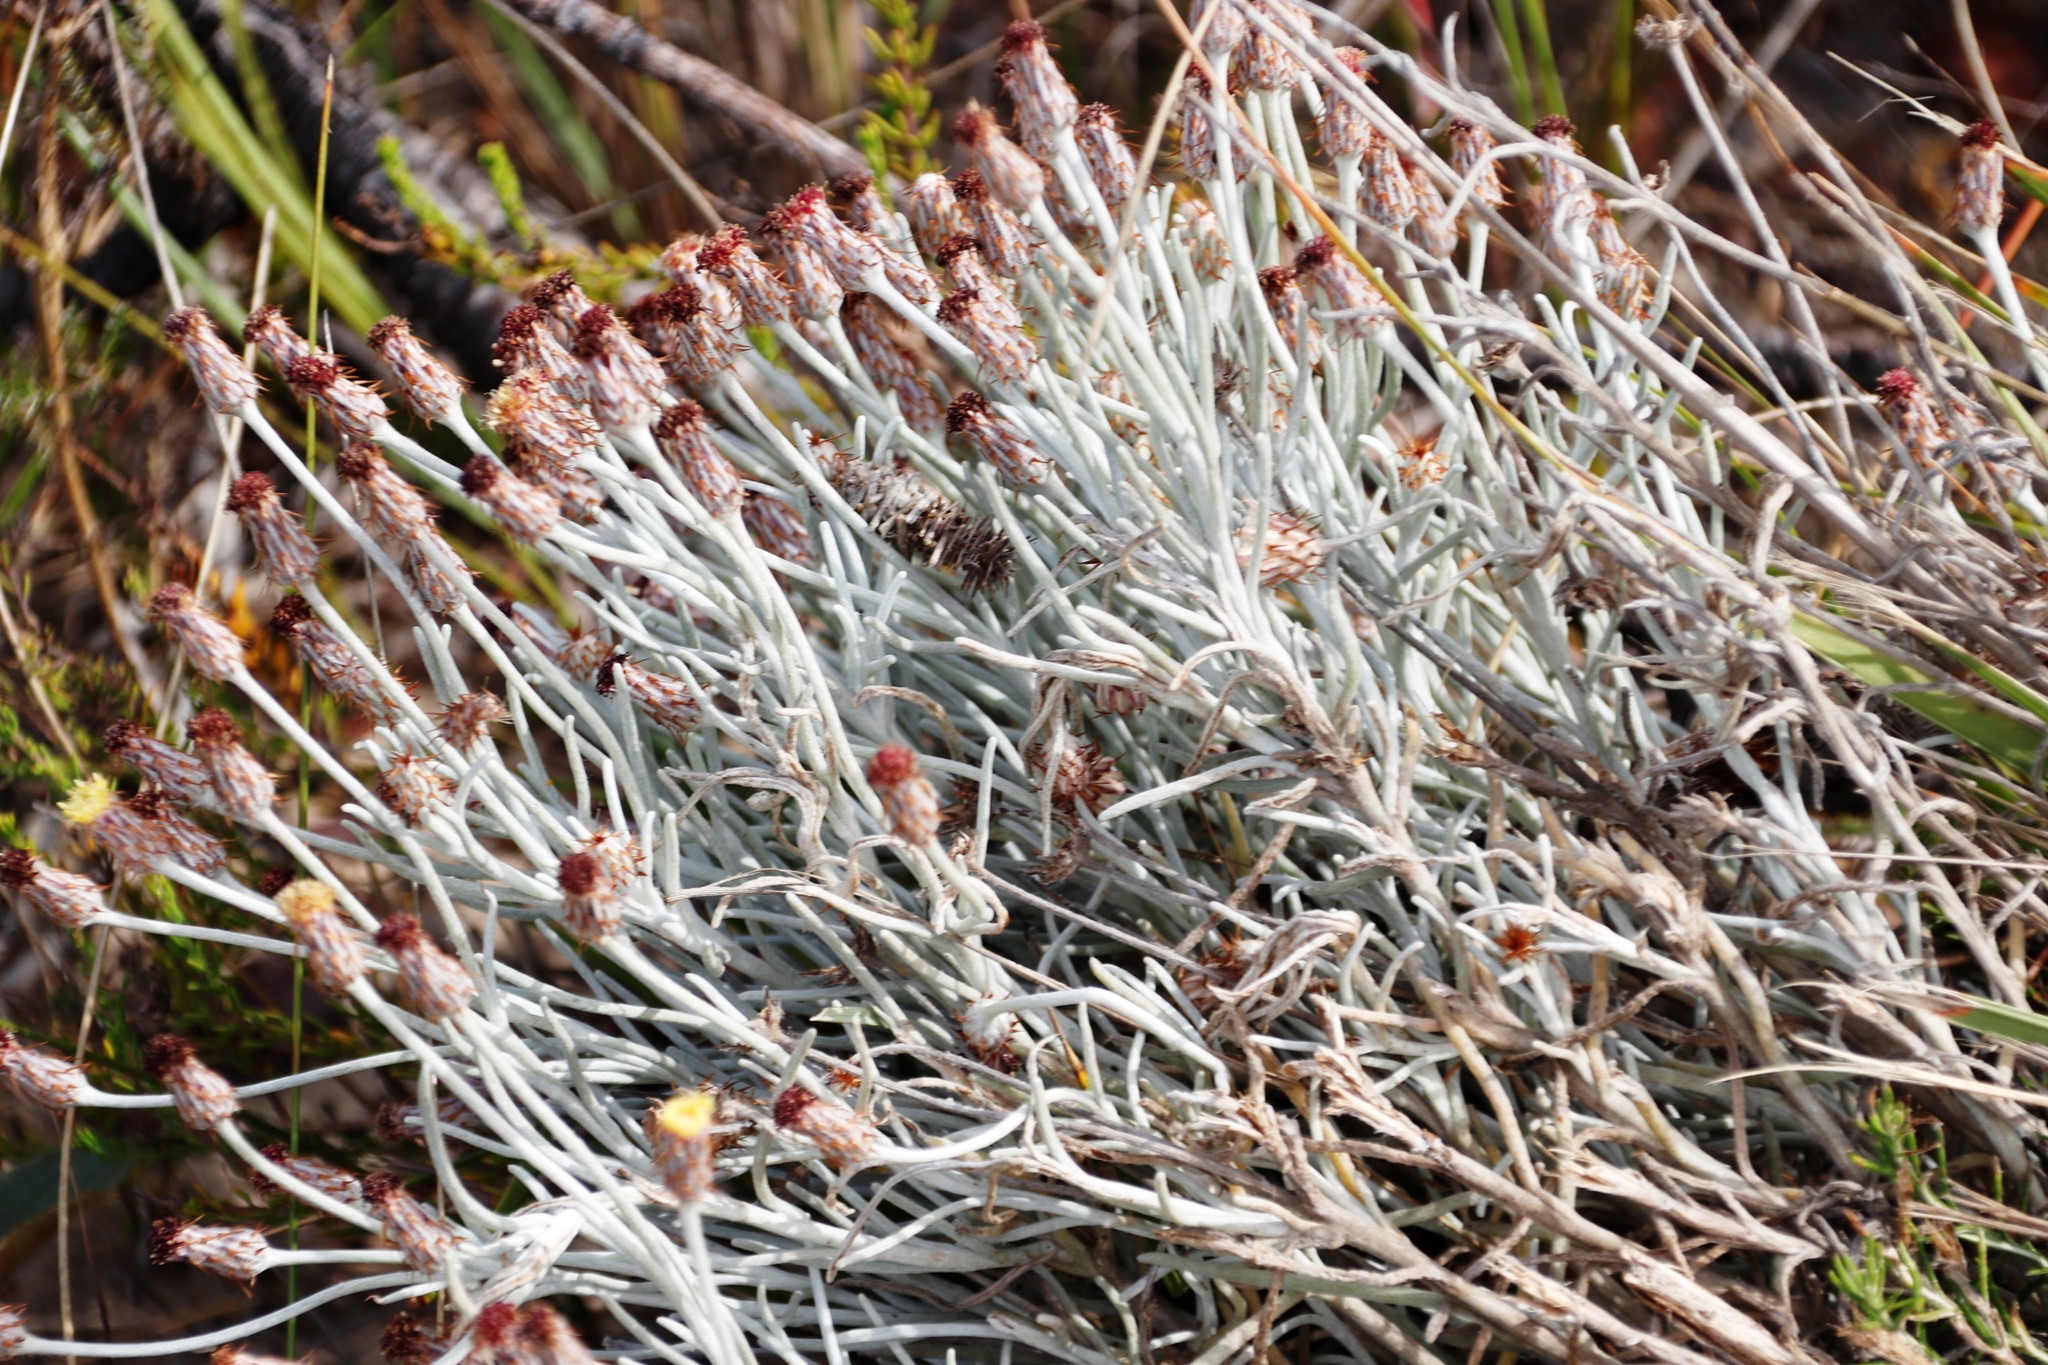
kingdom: Plantae
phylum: Tracheophyta
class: Magnoliopsida
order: Asterales
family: Asteraceae
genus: Syncarpha
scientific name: Syncarpha gnaphaloides
